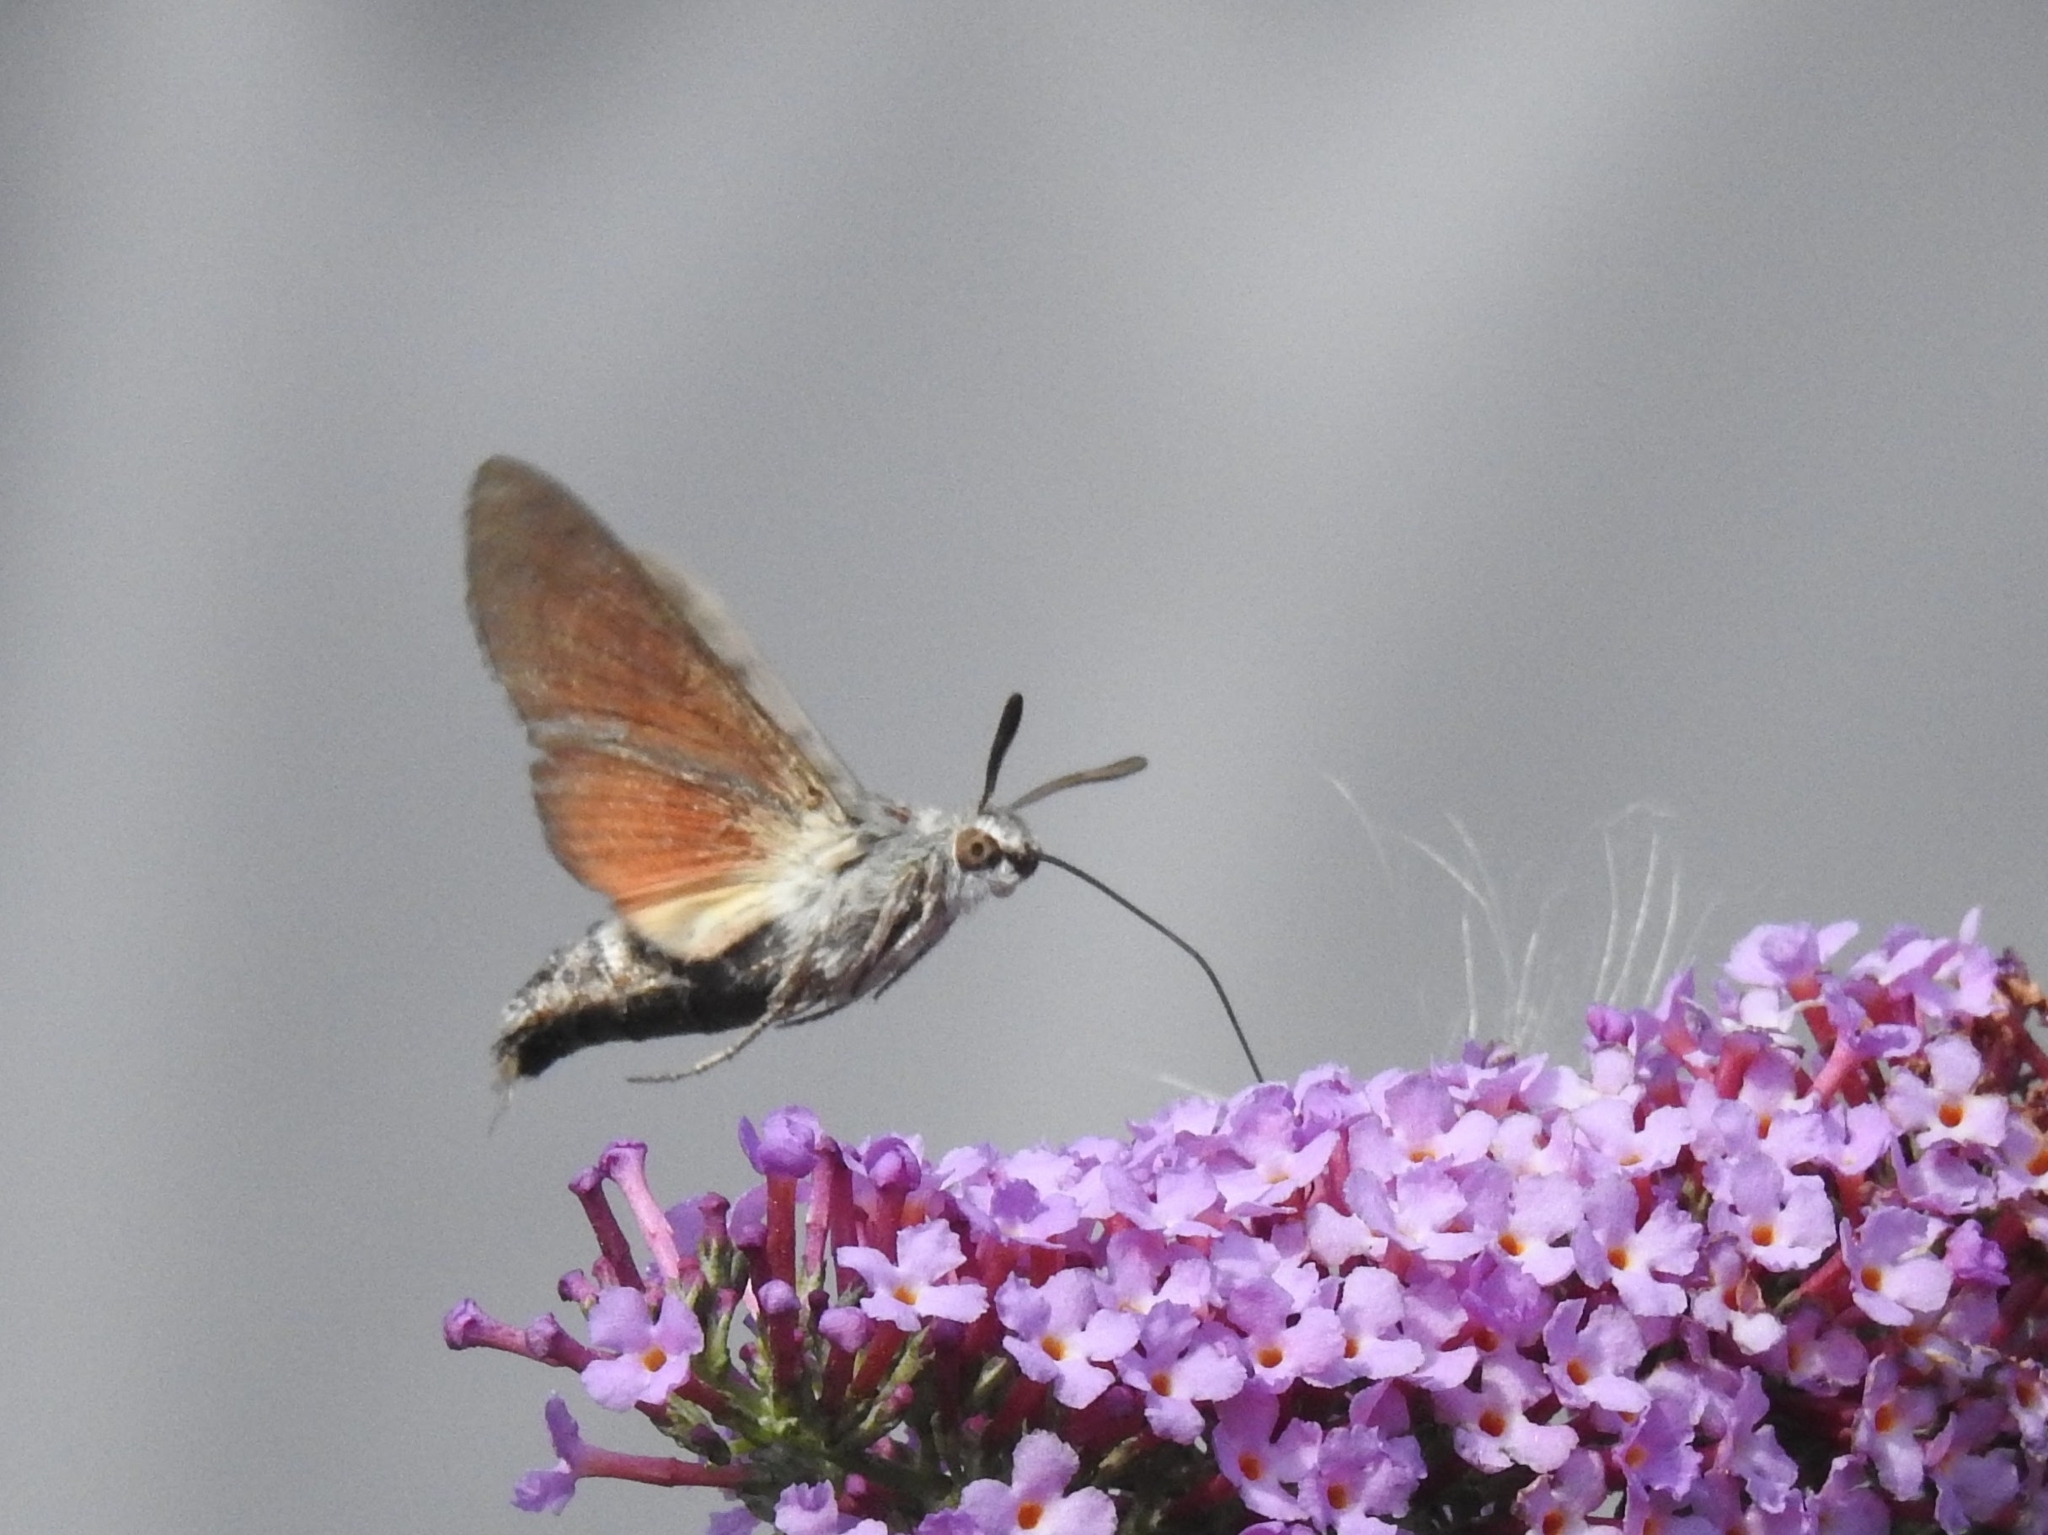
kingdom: Animalia
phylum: Arthropoda
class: Insecta
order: Lepidoptera
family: Sphingidae
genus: Macroglossum
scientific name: Macroglossum stellatarum
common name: Humming-bird hawk-moth
